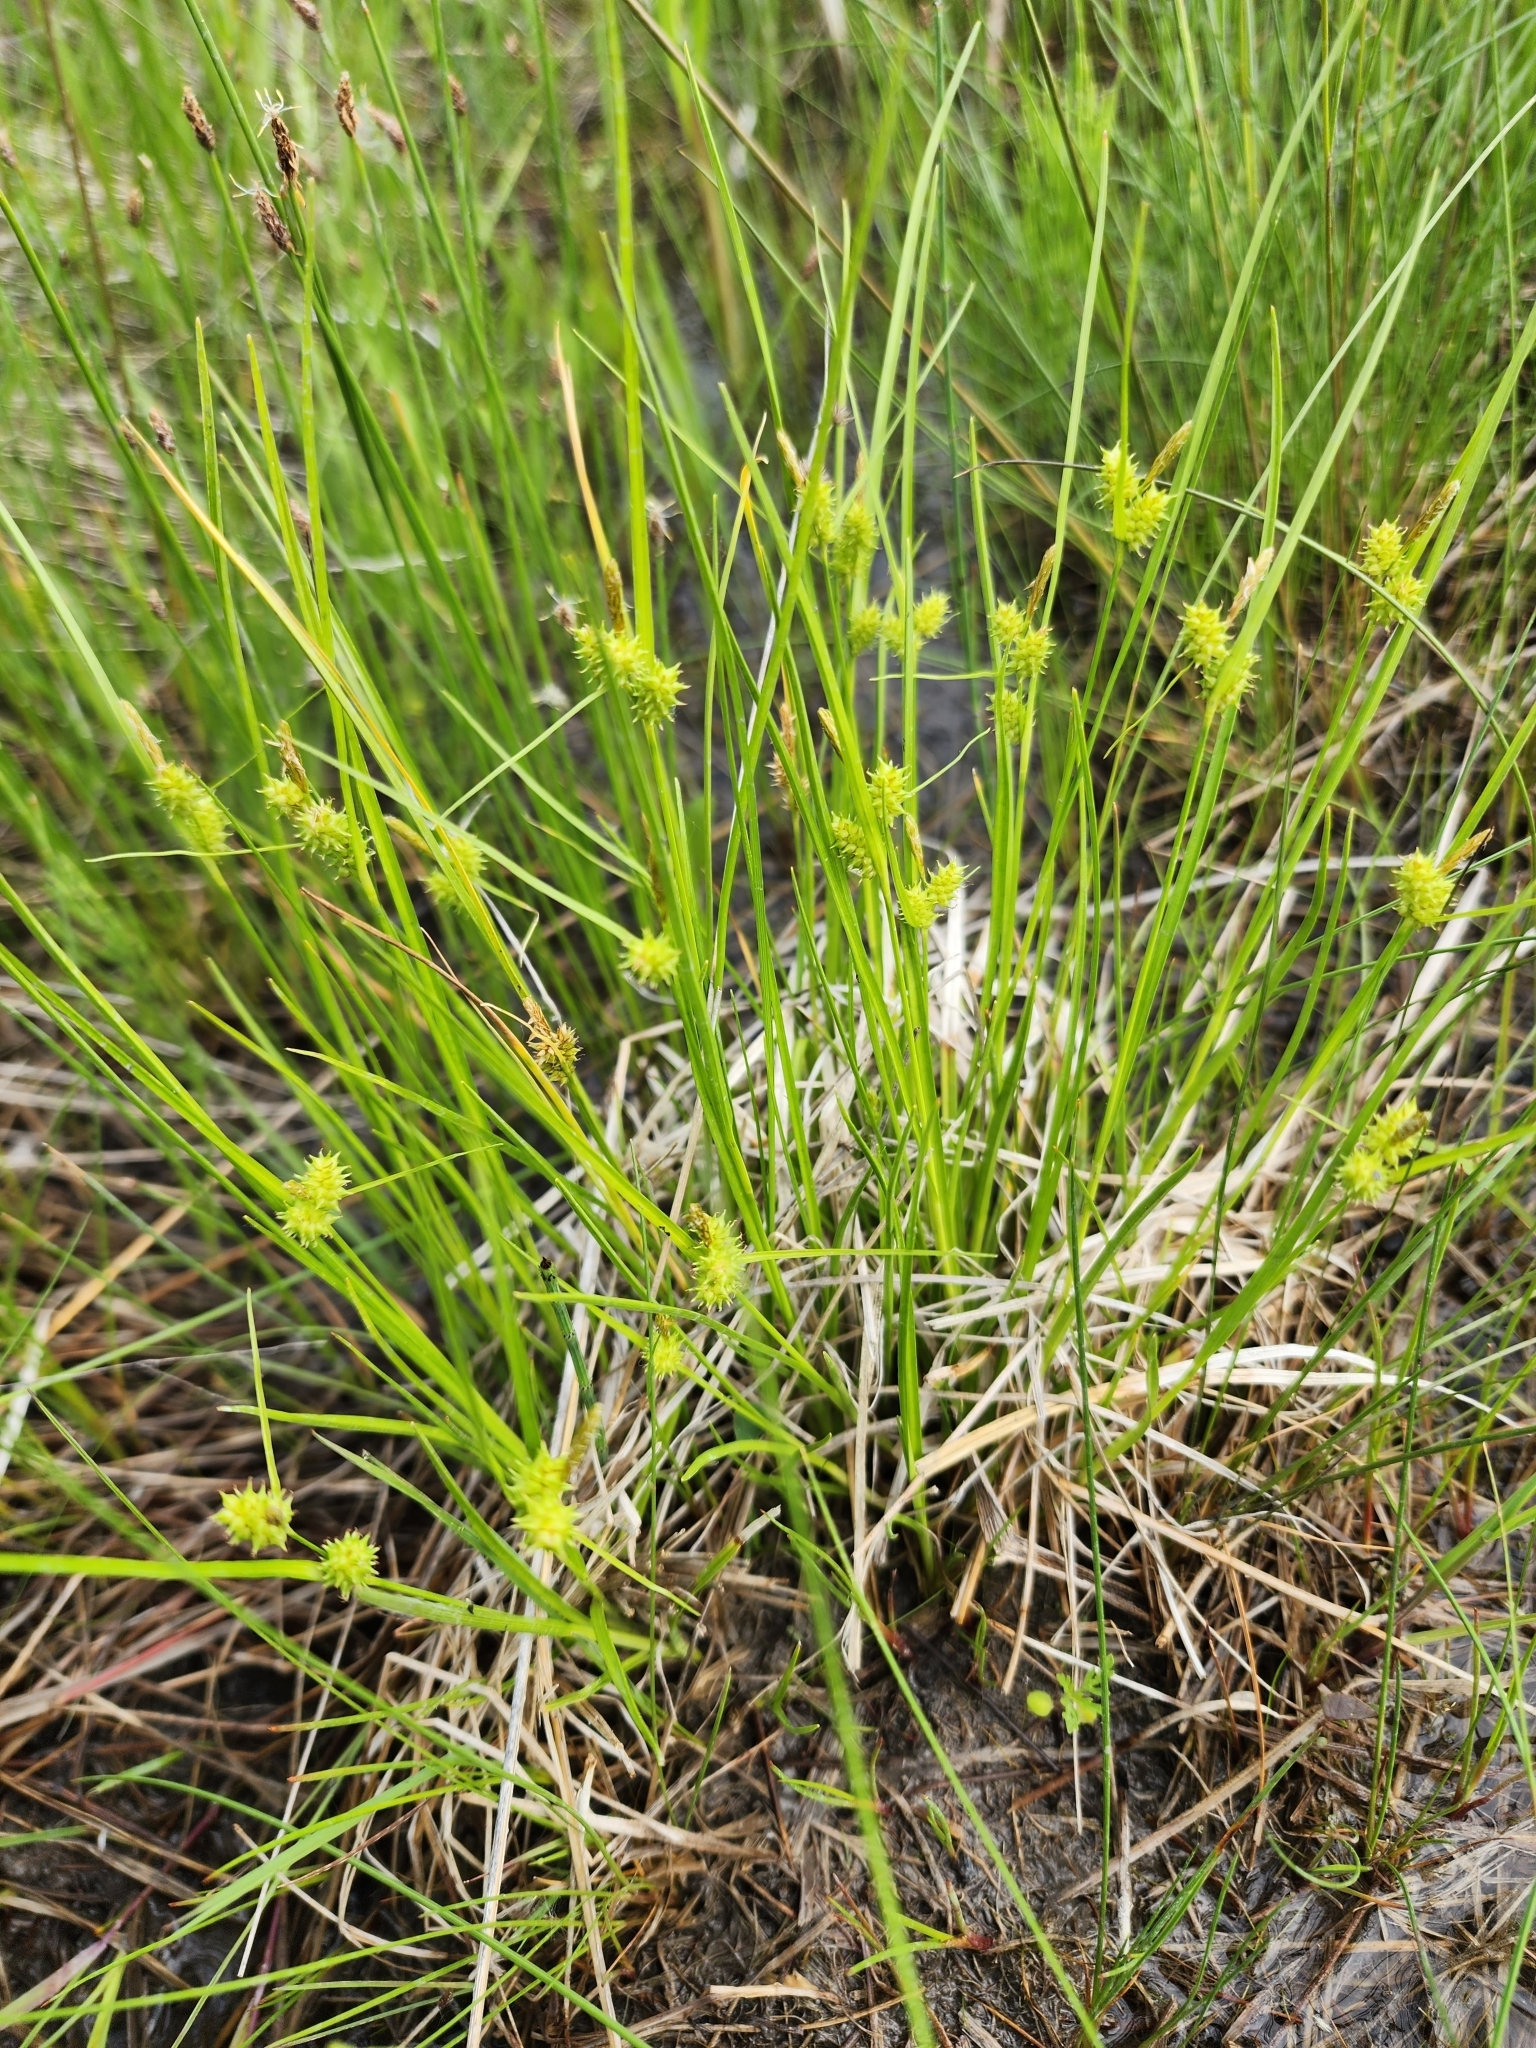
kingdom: Plantae
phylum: Tracheophyta
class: Liliopsida
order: Poales
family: Cyperaceae
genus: Carex
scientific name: Carex granularis
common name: Granular sedge
